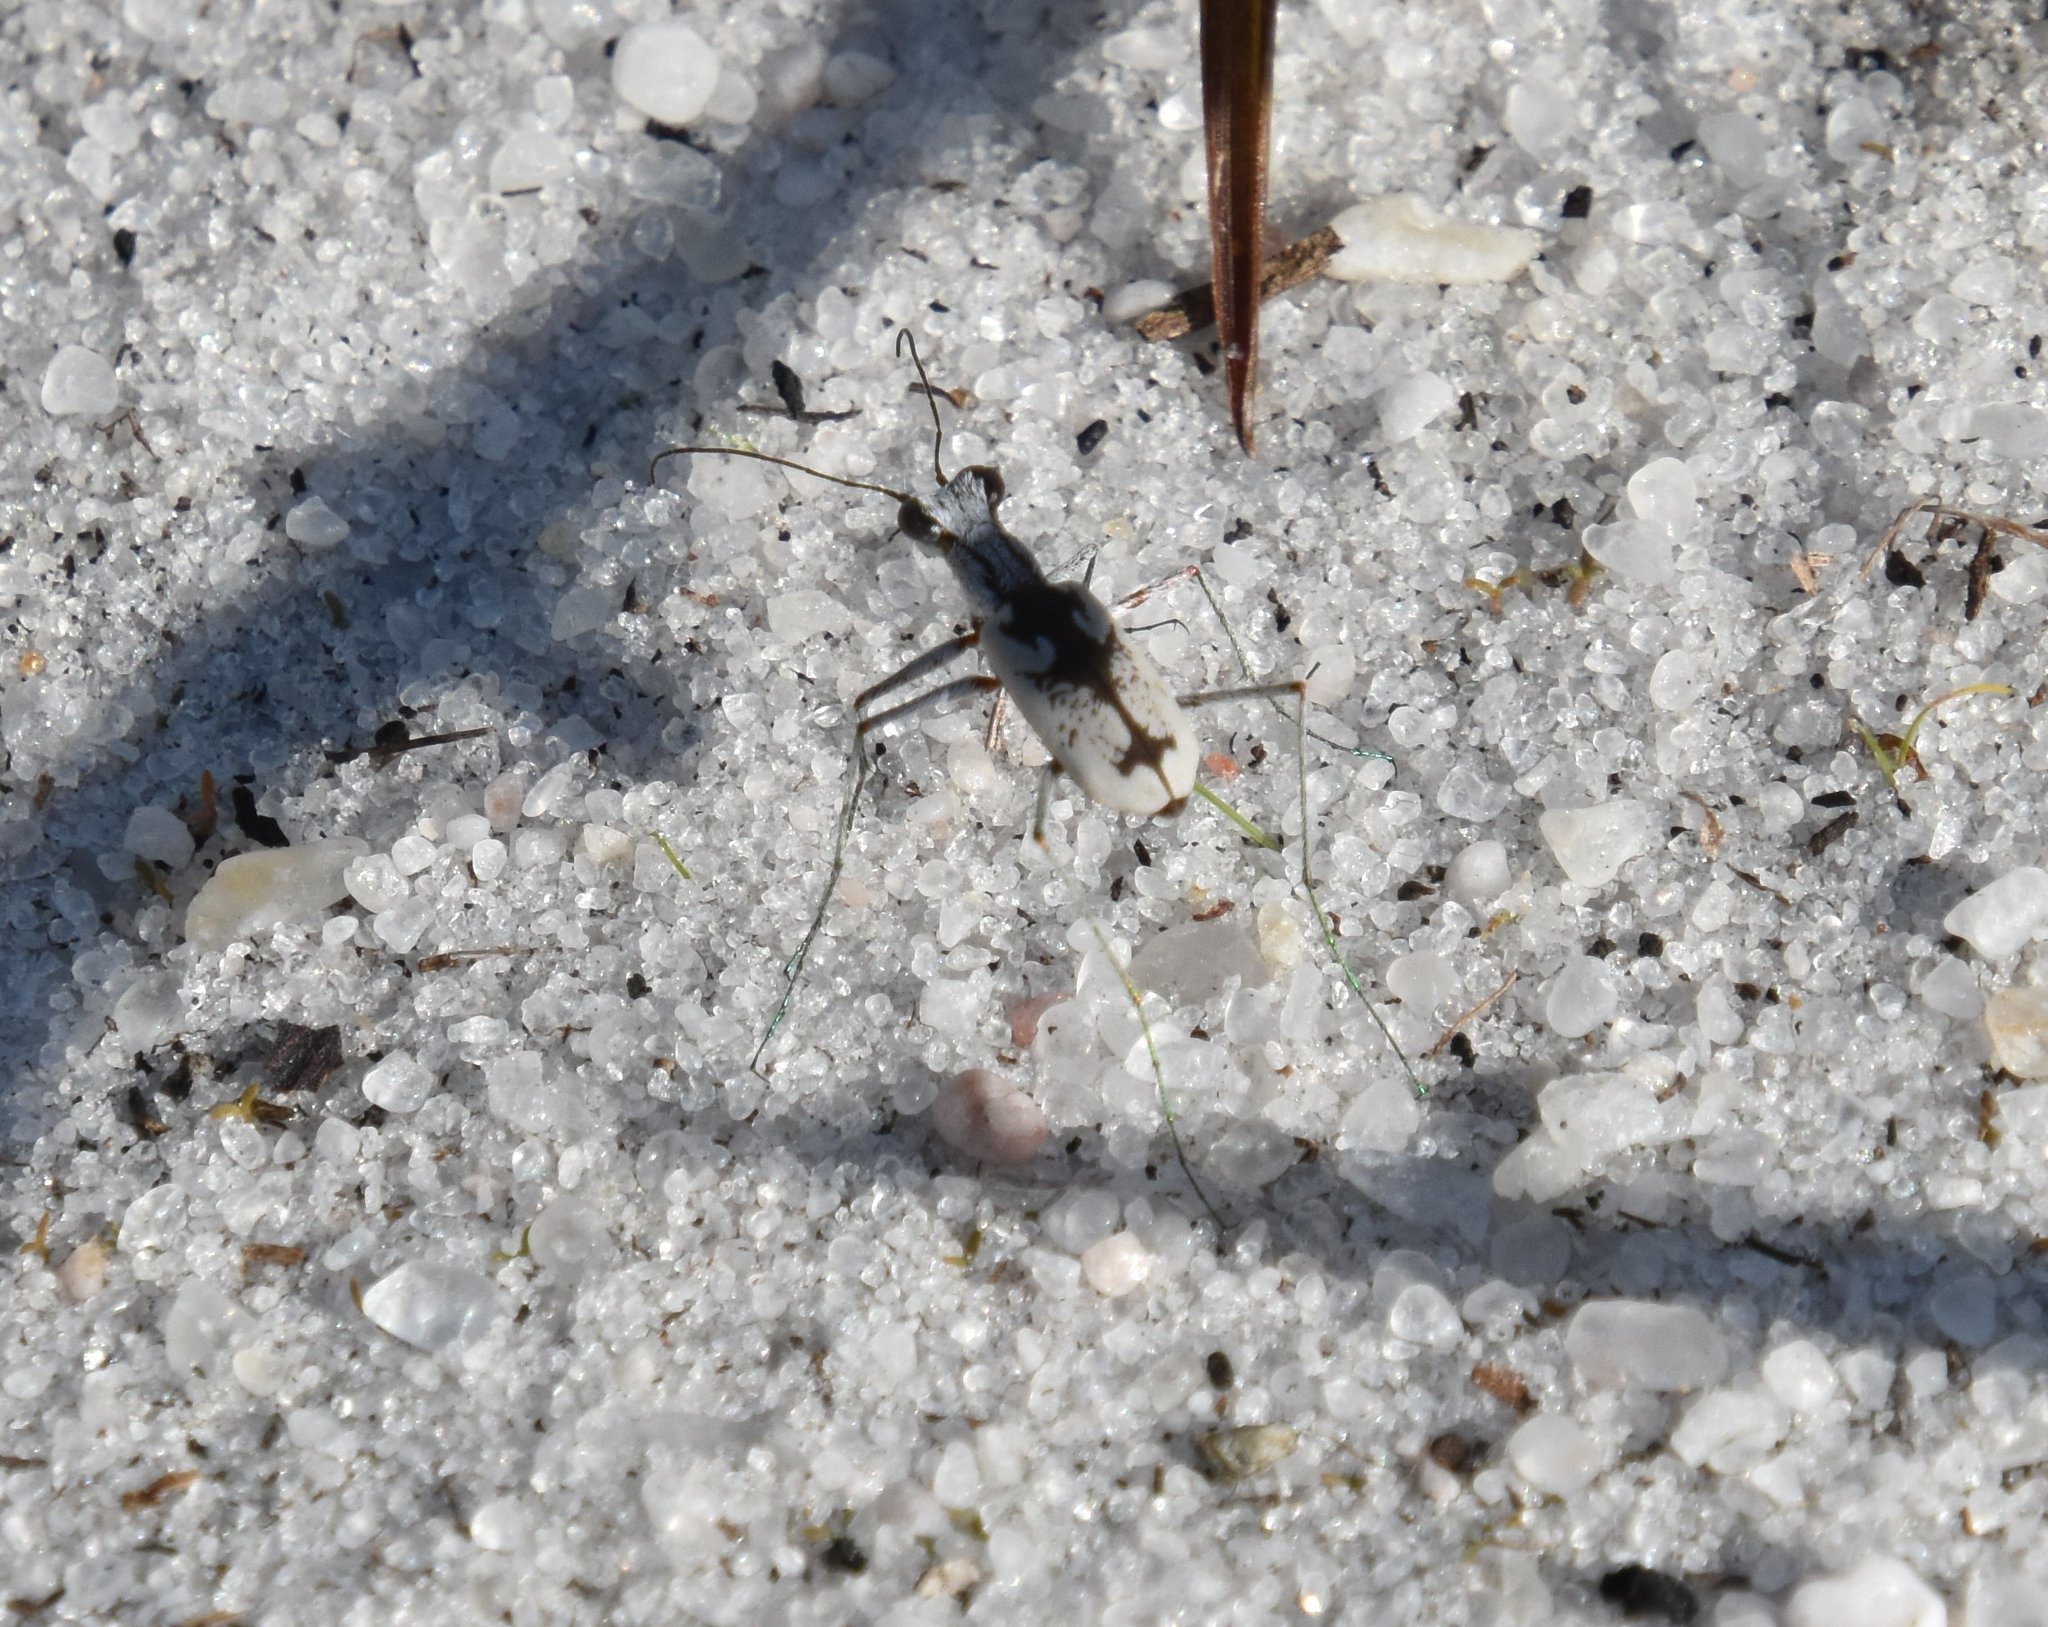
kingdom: Animalia
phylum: Arthropoda
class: Insecta
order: Coleoptera
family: Carabidae
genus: Ellipsoptera
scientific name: Ellipsoptera hirtilabris
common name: Moustached tiger beetle
